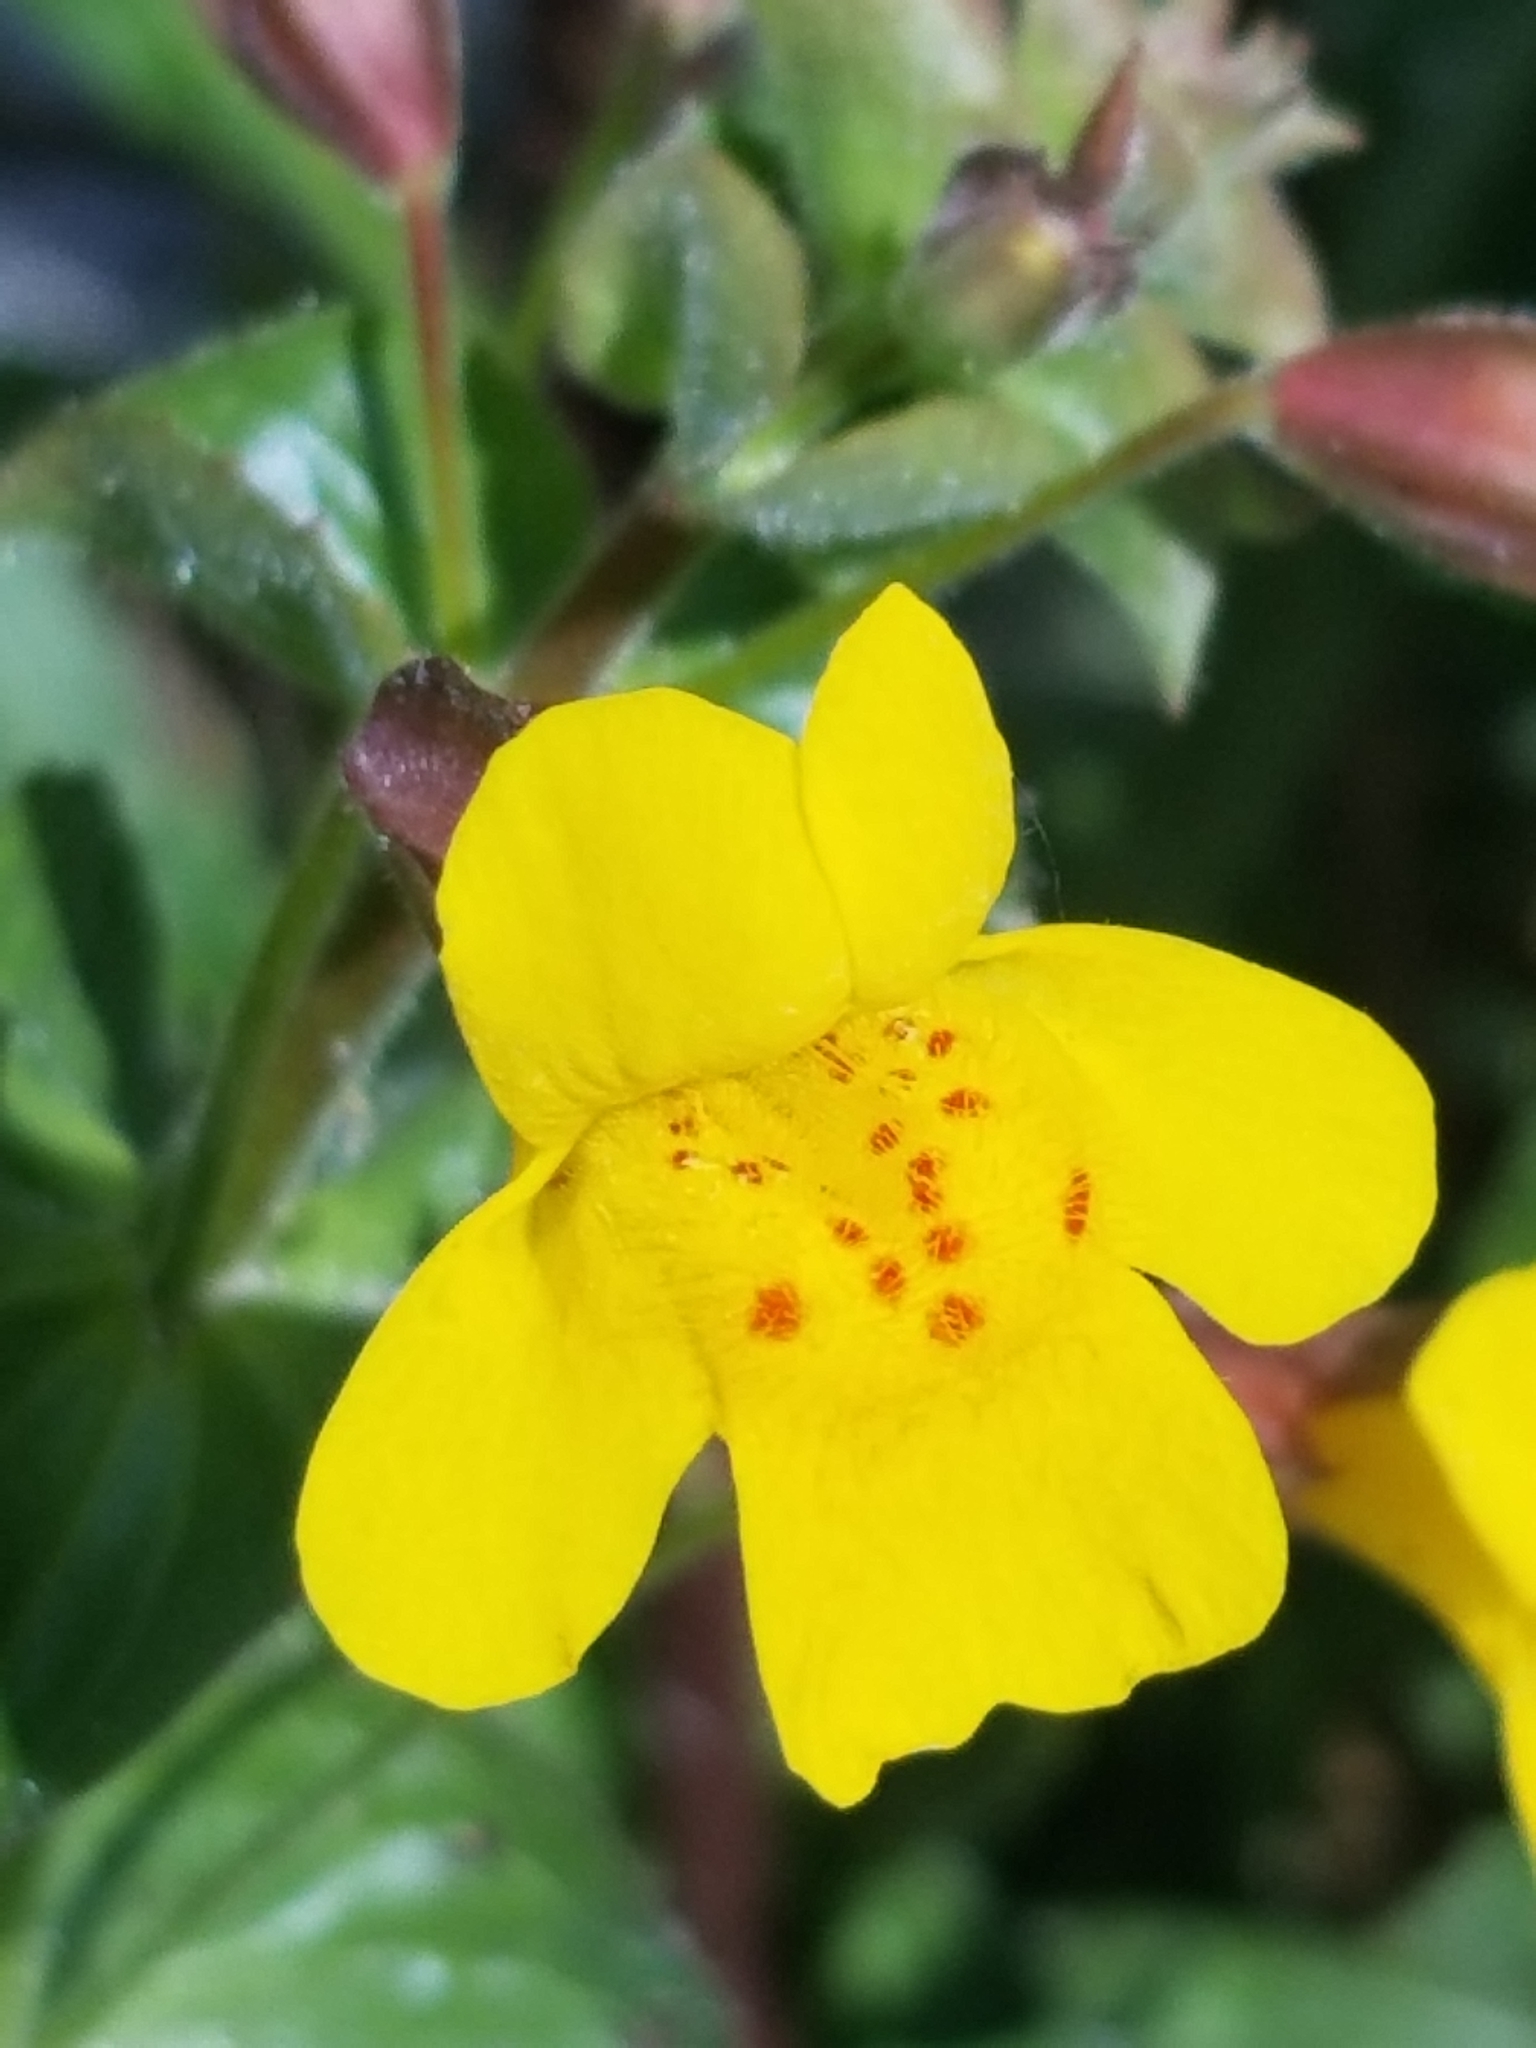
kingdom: Plantae
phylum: Tracheophyta
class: Magnoliopsida
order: Lamiales
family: Phrymaceae
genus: Erythranthe
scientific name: Erythranthe guttata
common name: Monkeyflower
